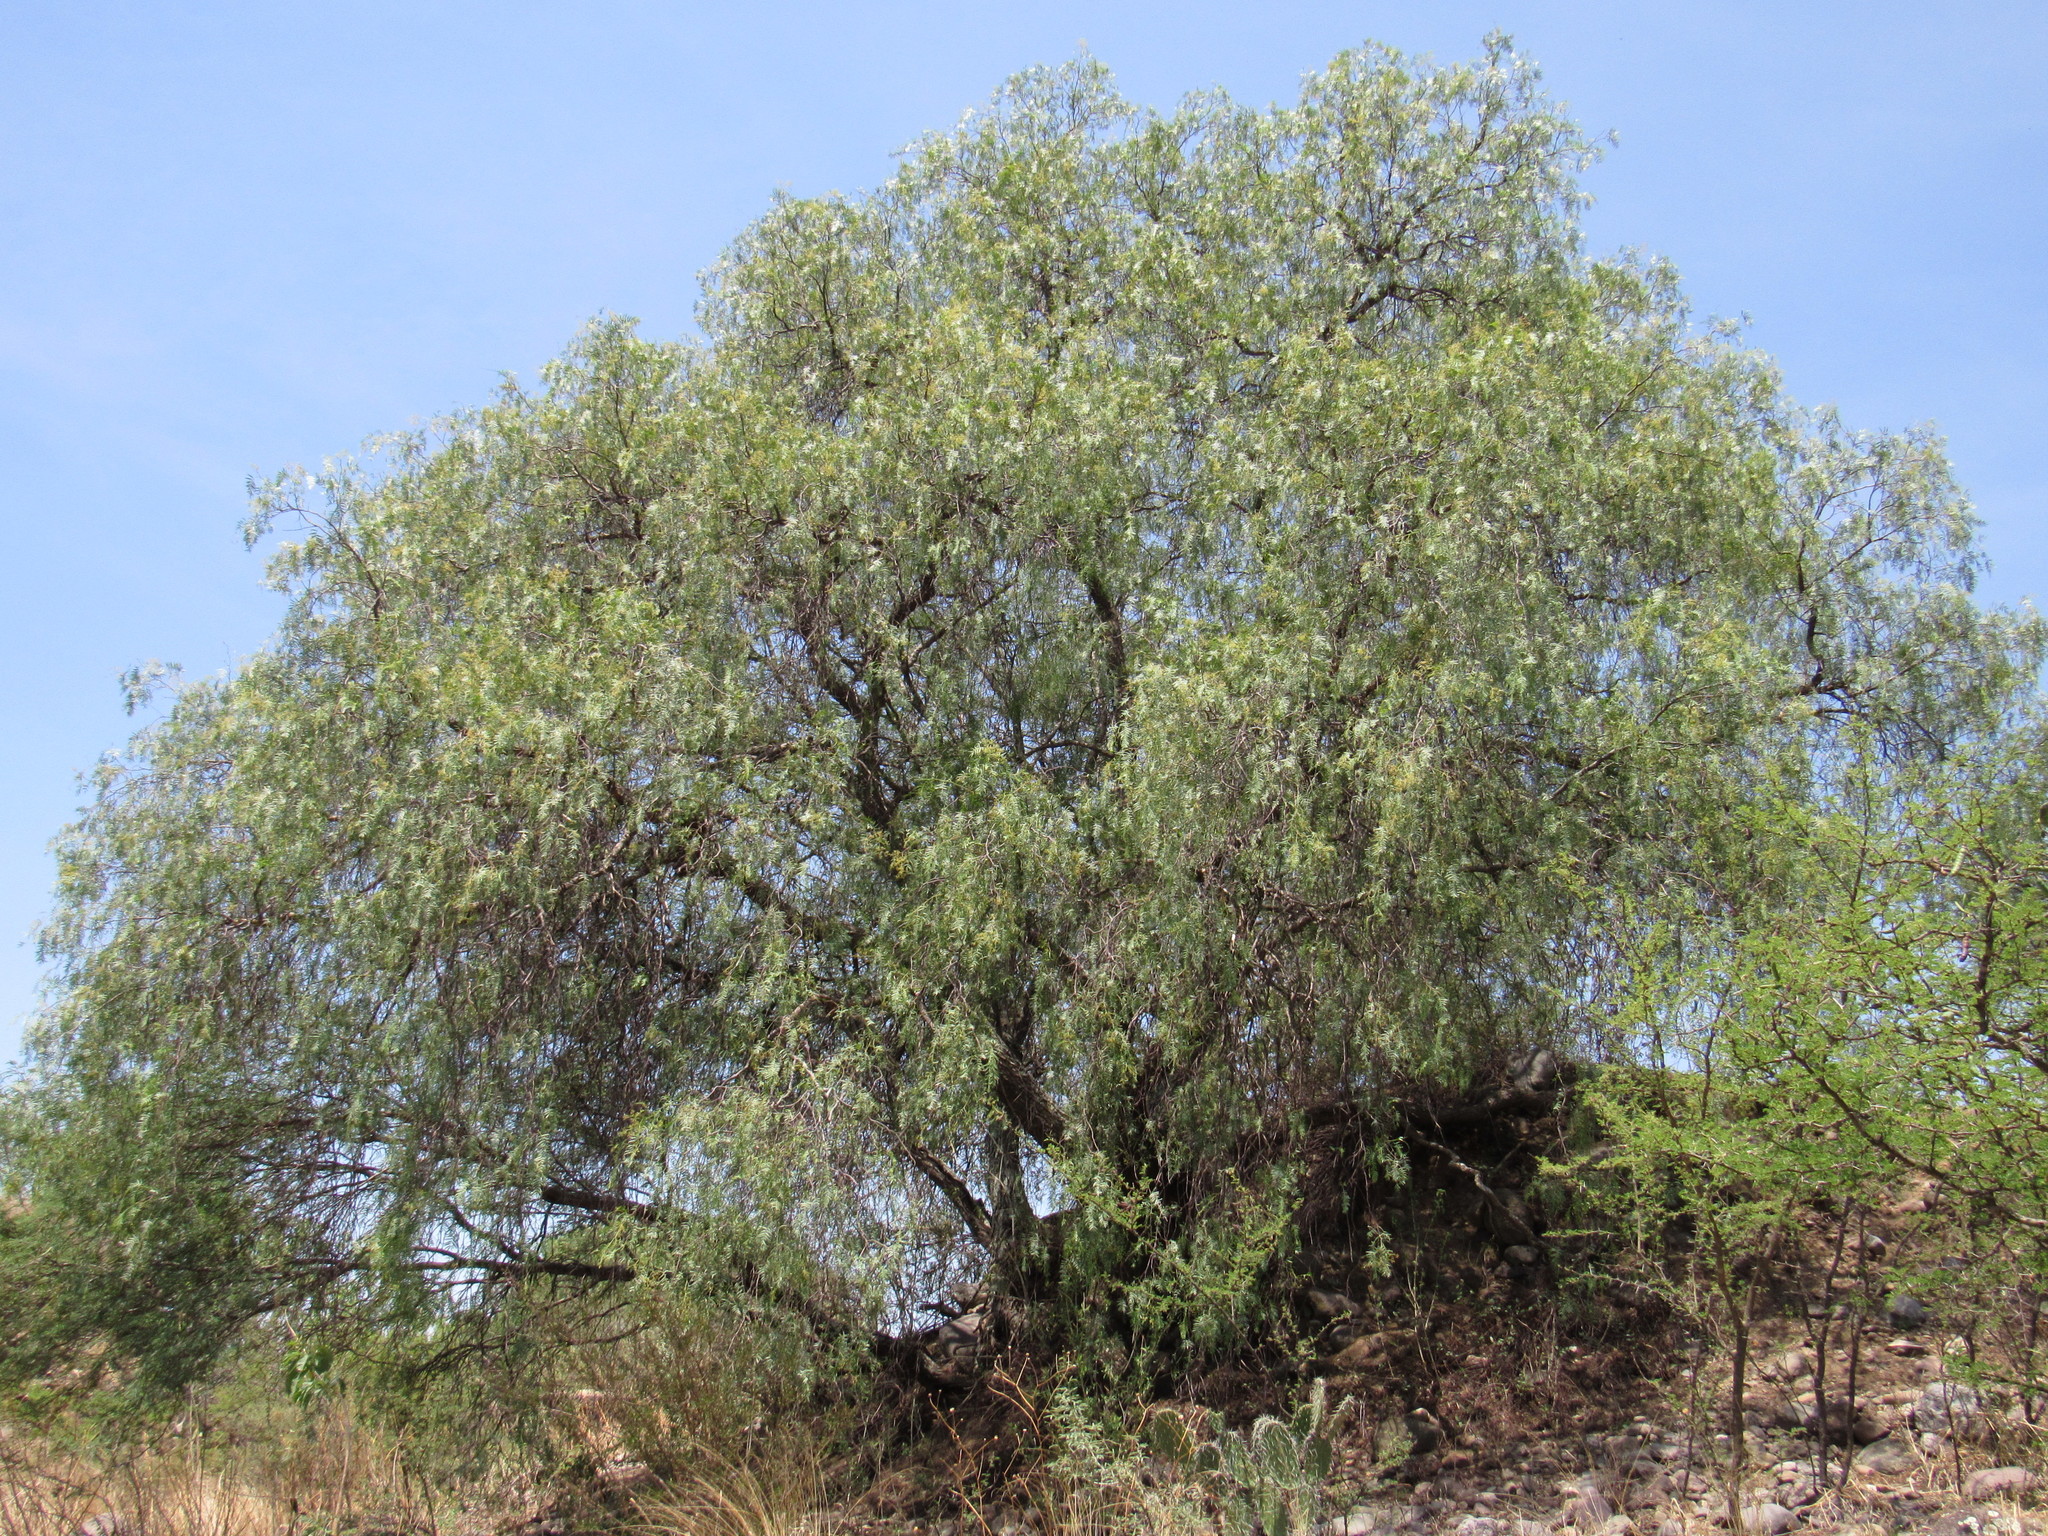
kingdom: Plantae
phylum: Tracheophyta
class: Magnoliopsida
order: Sapindales
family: Anacardiaceae
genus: Schinus
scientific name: Schinus molle
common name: Peruvian peppertree
